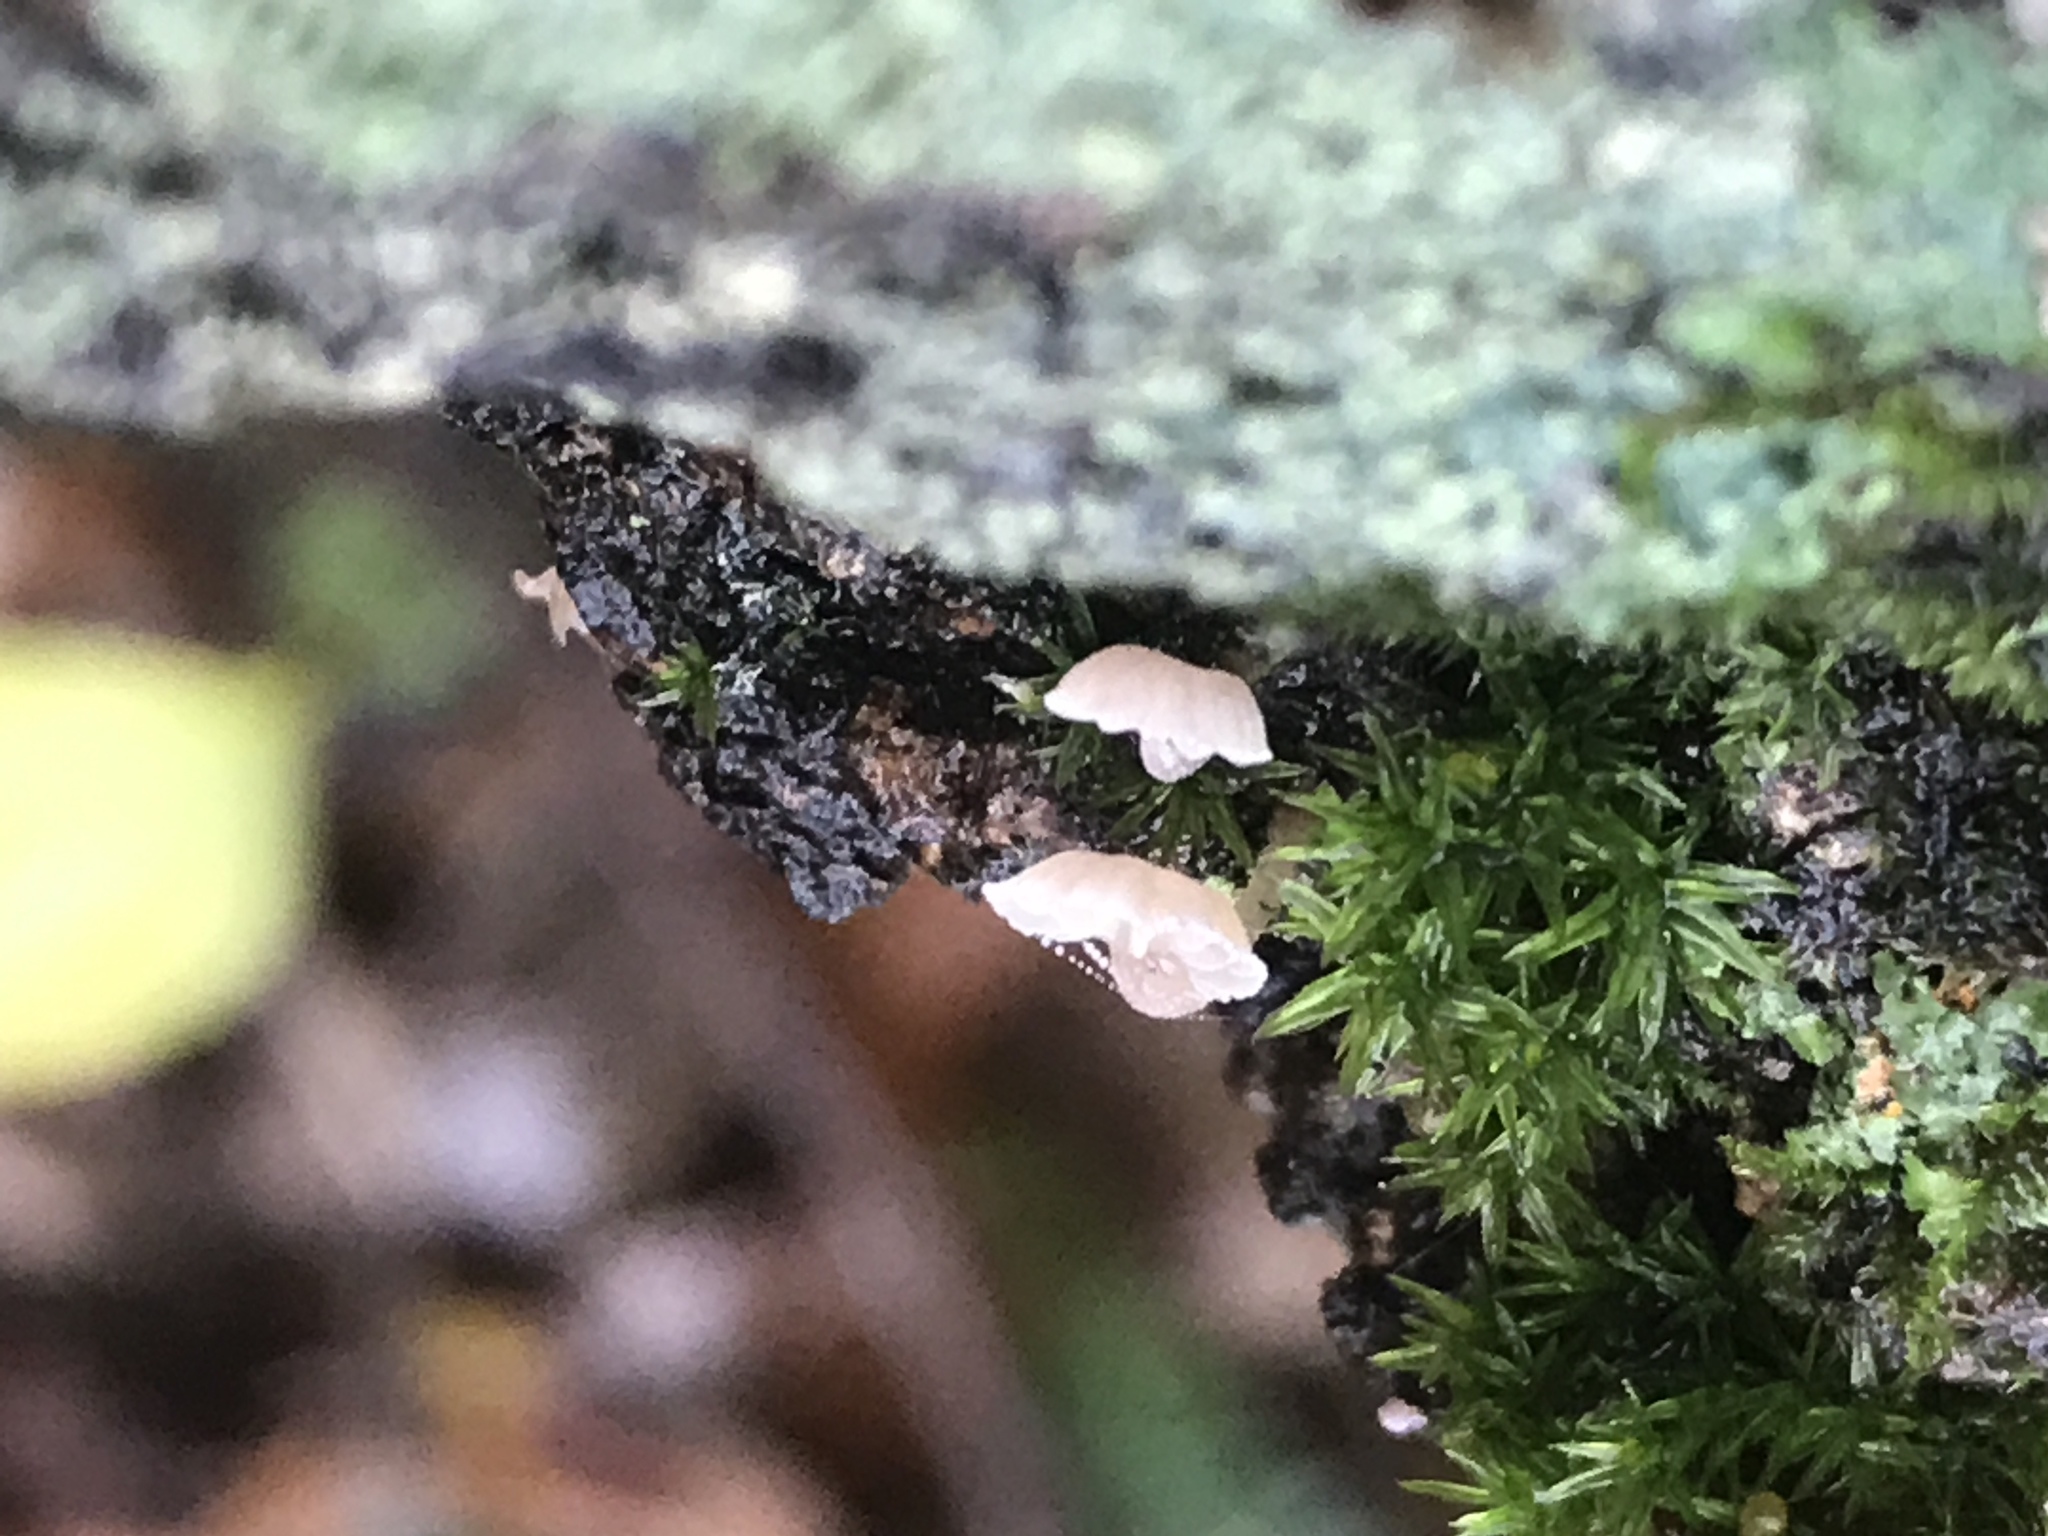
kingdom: Fungi
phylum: Basidiomycota
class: Agaricomycetes
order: Agaricales
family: Mycenaceae
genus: Mycena
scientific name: Mycena corticola
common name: Bark mycena
